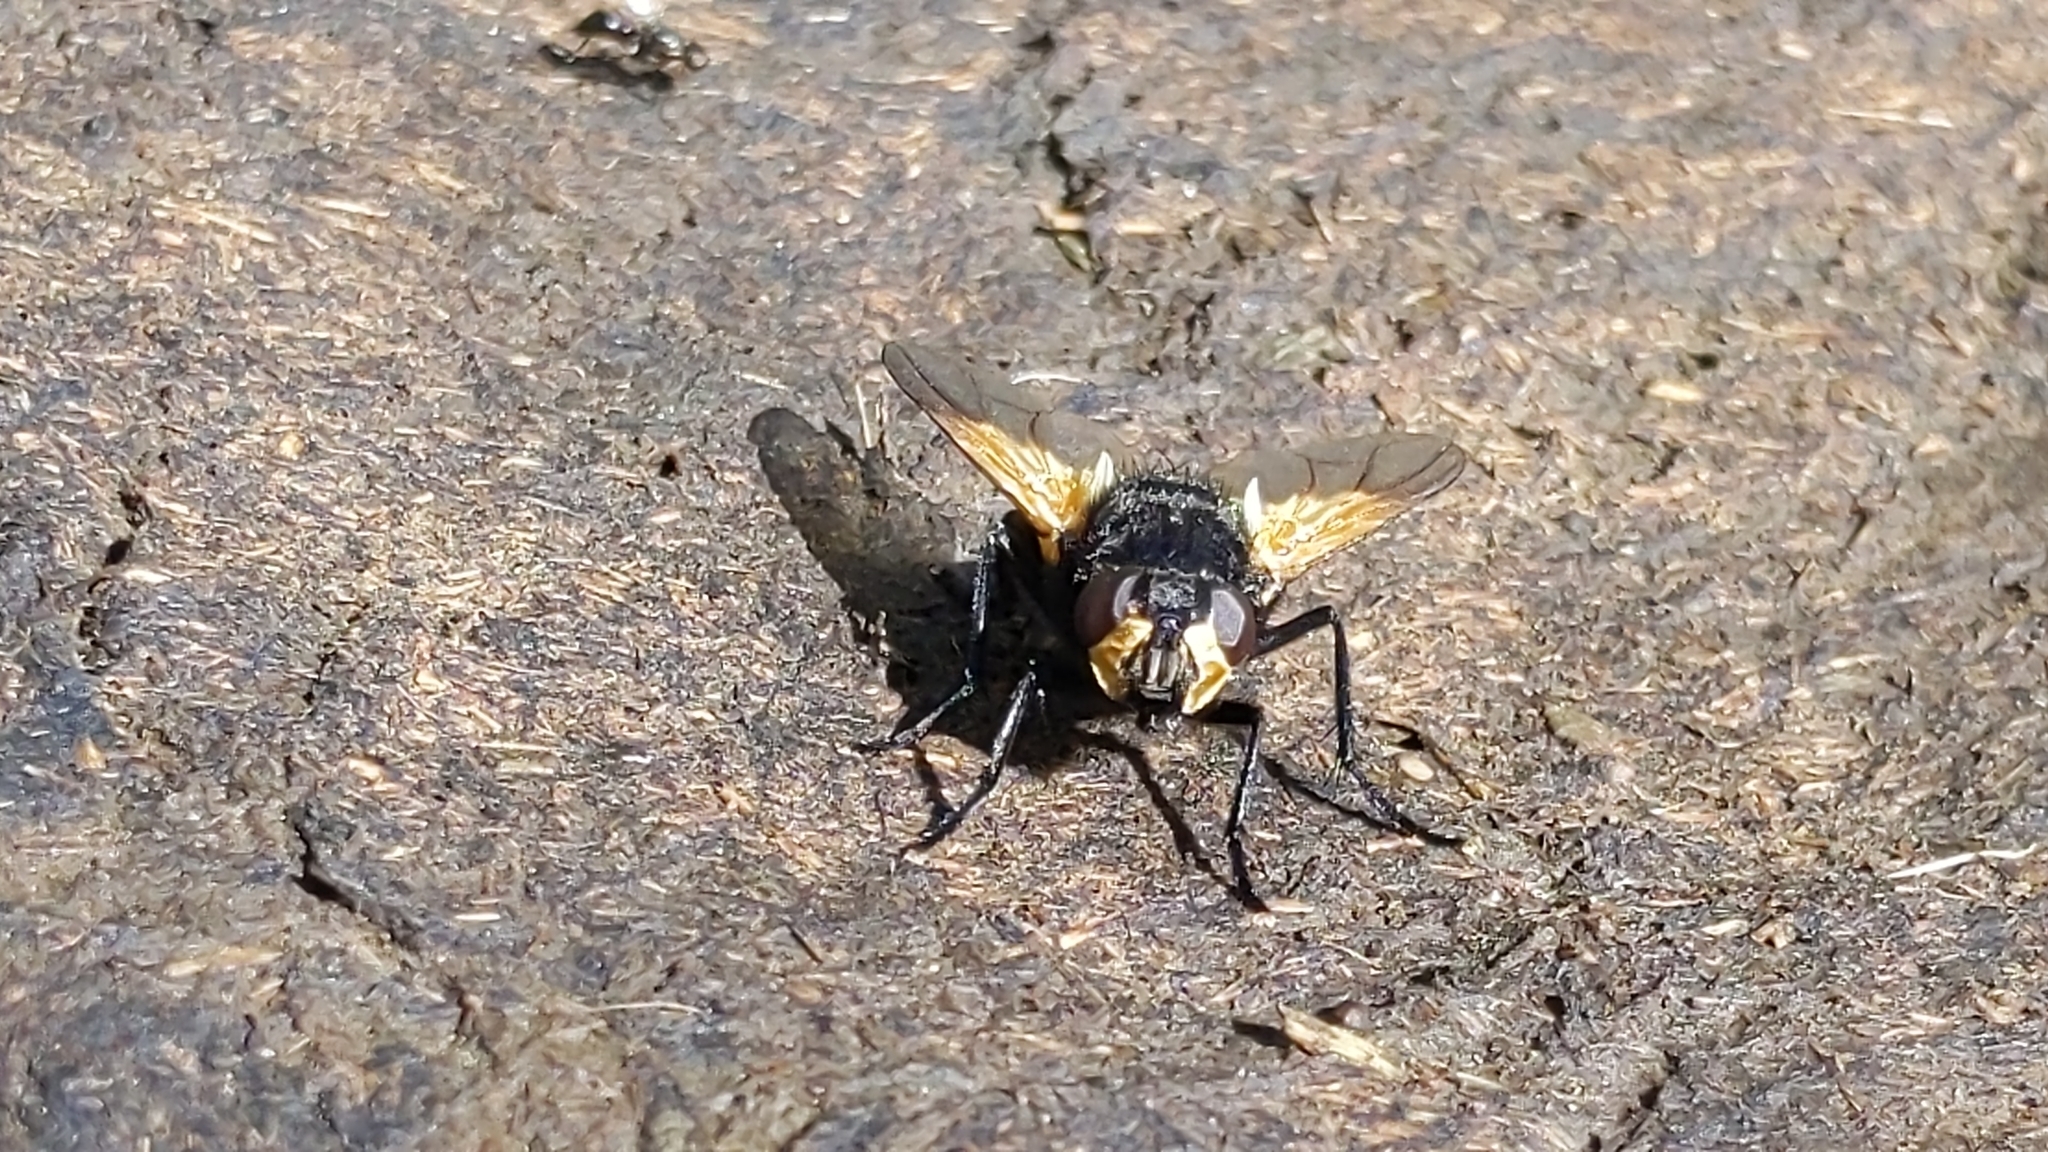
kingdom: Animalia
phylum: Arthropoda
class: Insecta
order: Diptera
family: Muscidae
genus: Mesembrina
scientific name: Mesembrina meridiana
